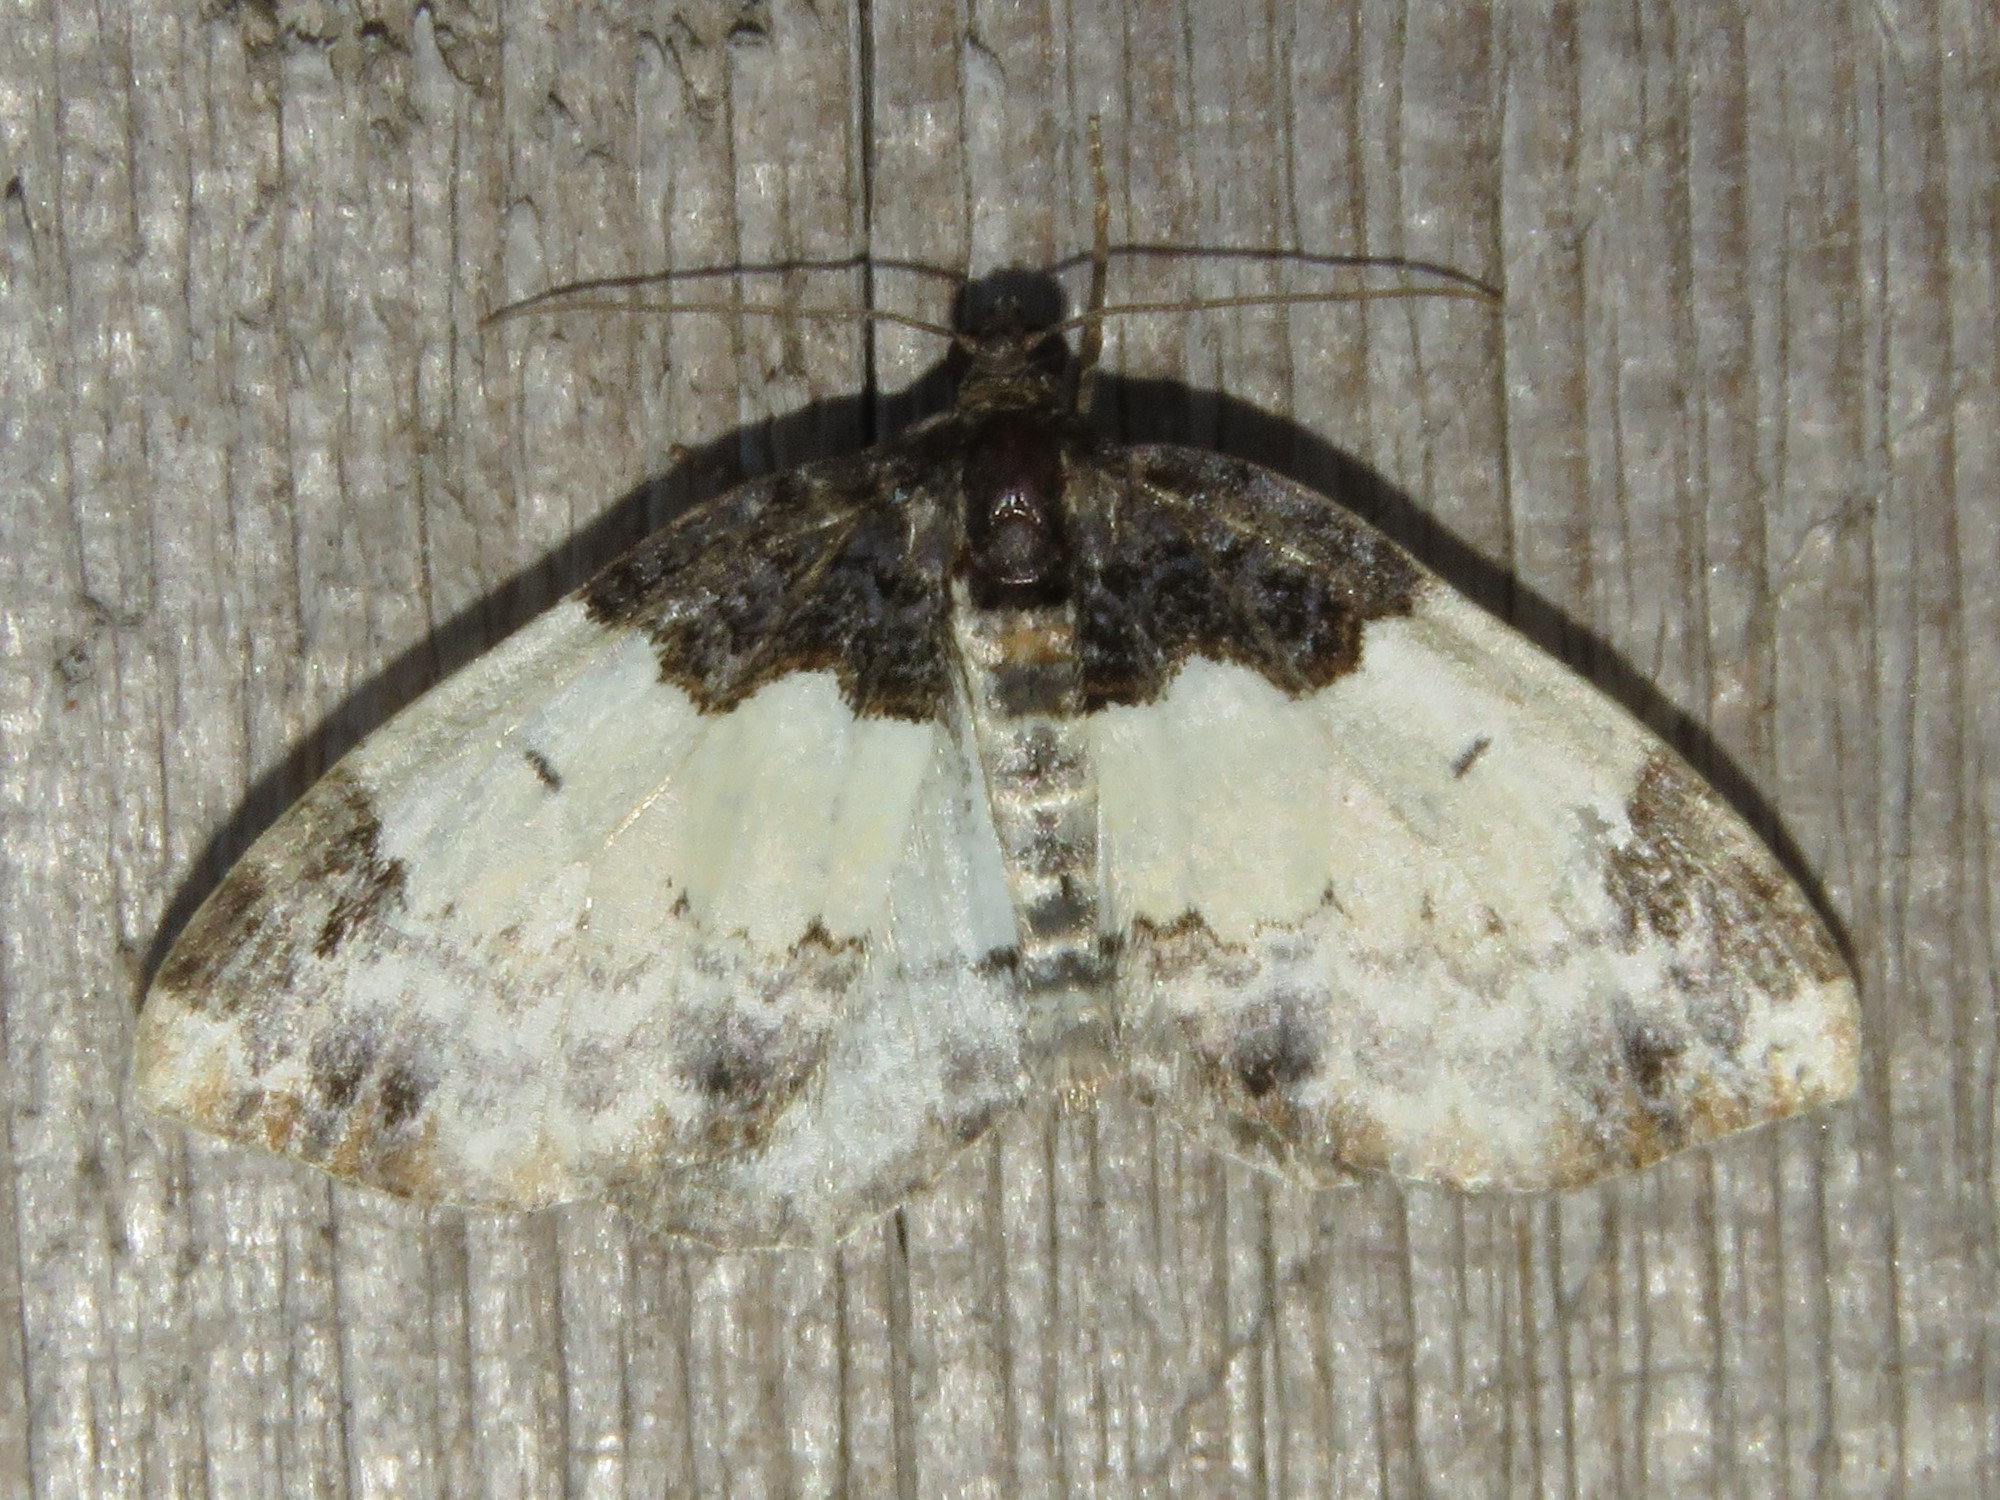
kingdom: Animalia
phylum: Arthropoda
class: Insecta
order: Lepidoptera
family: Geometridae
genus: Mesoleuca
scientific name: Mesoleuca ruficillata
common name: White-ribboned carpet moth
